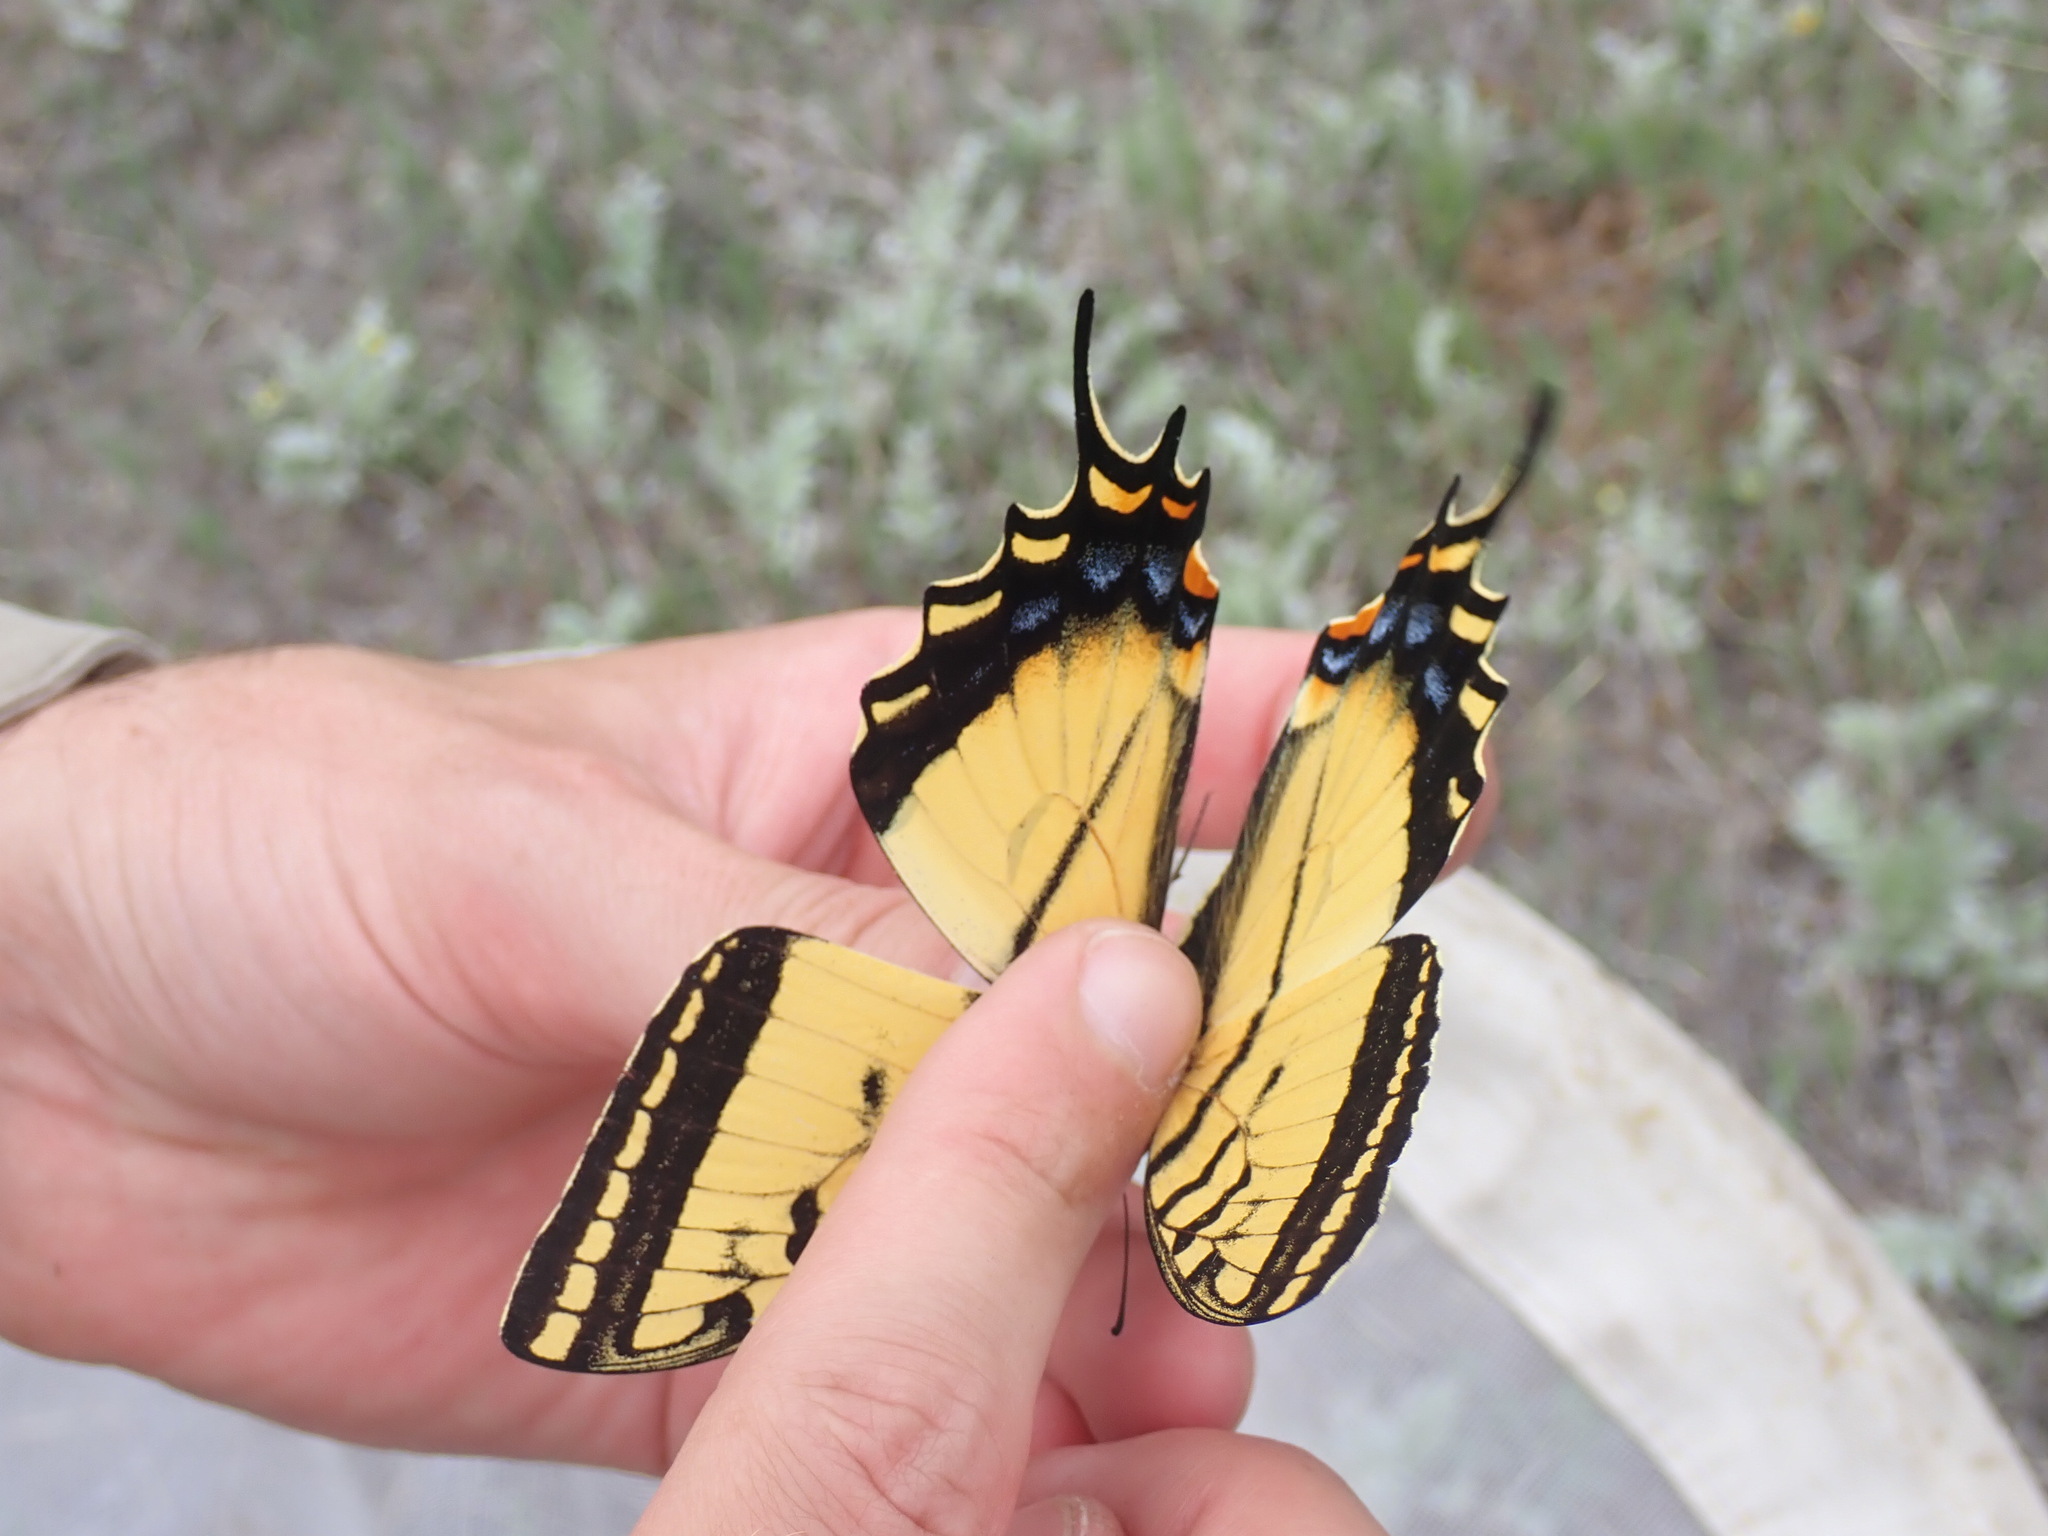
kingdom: Animalia
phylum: Arthropoda
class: Insecta
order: Lepidoptera
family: Papilionidae
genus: Papilio
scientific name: Papilio multicaudata
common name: Two-tailed tiger swallowtail
